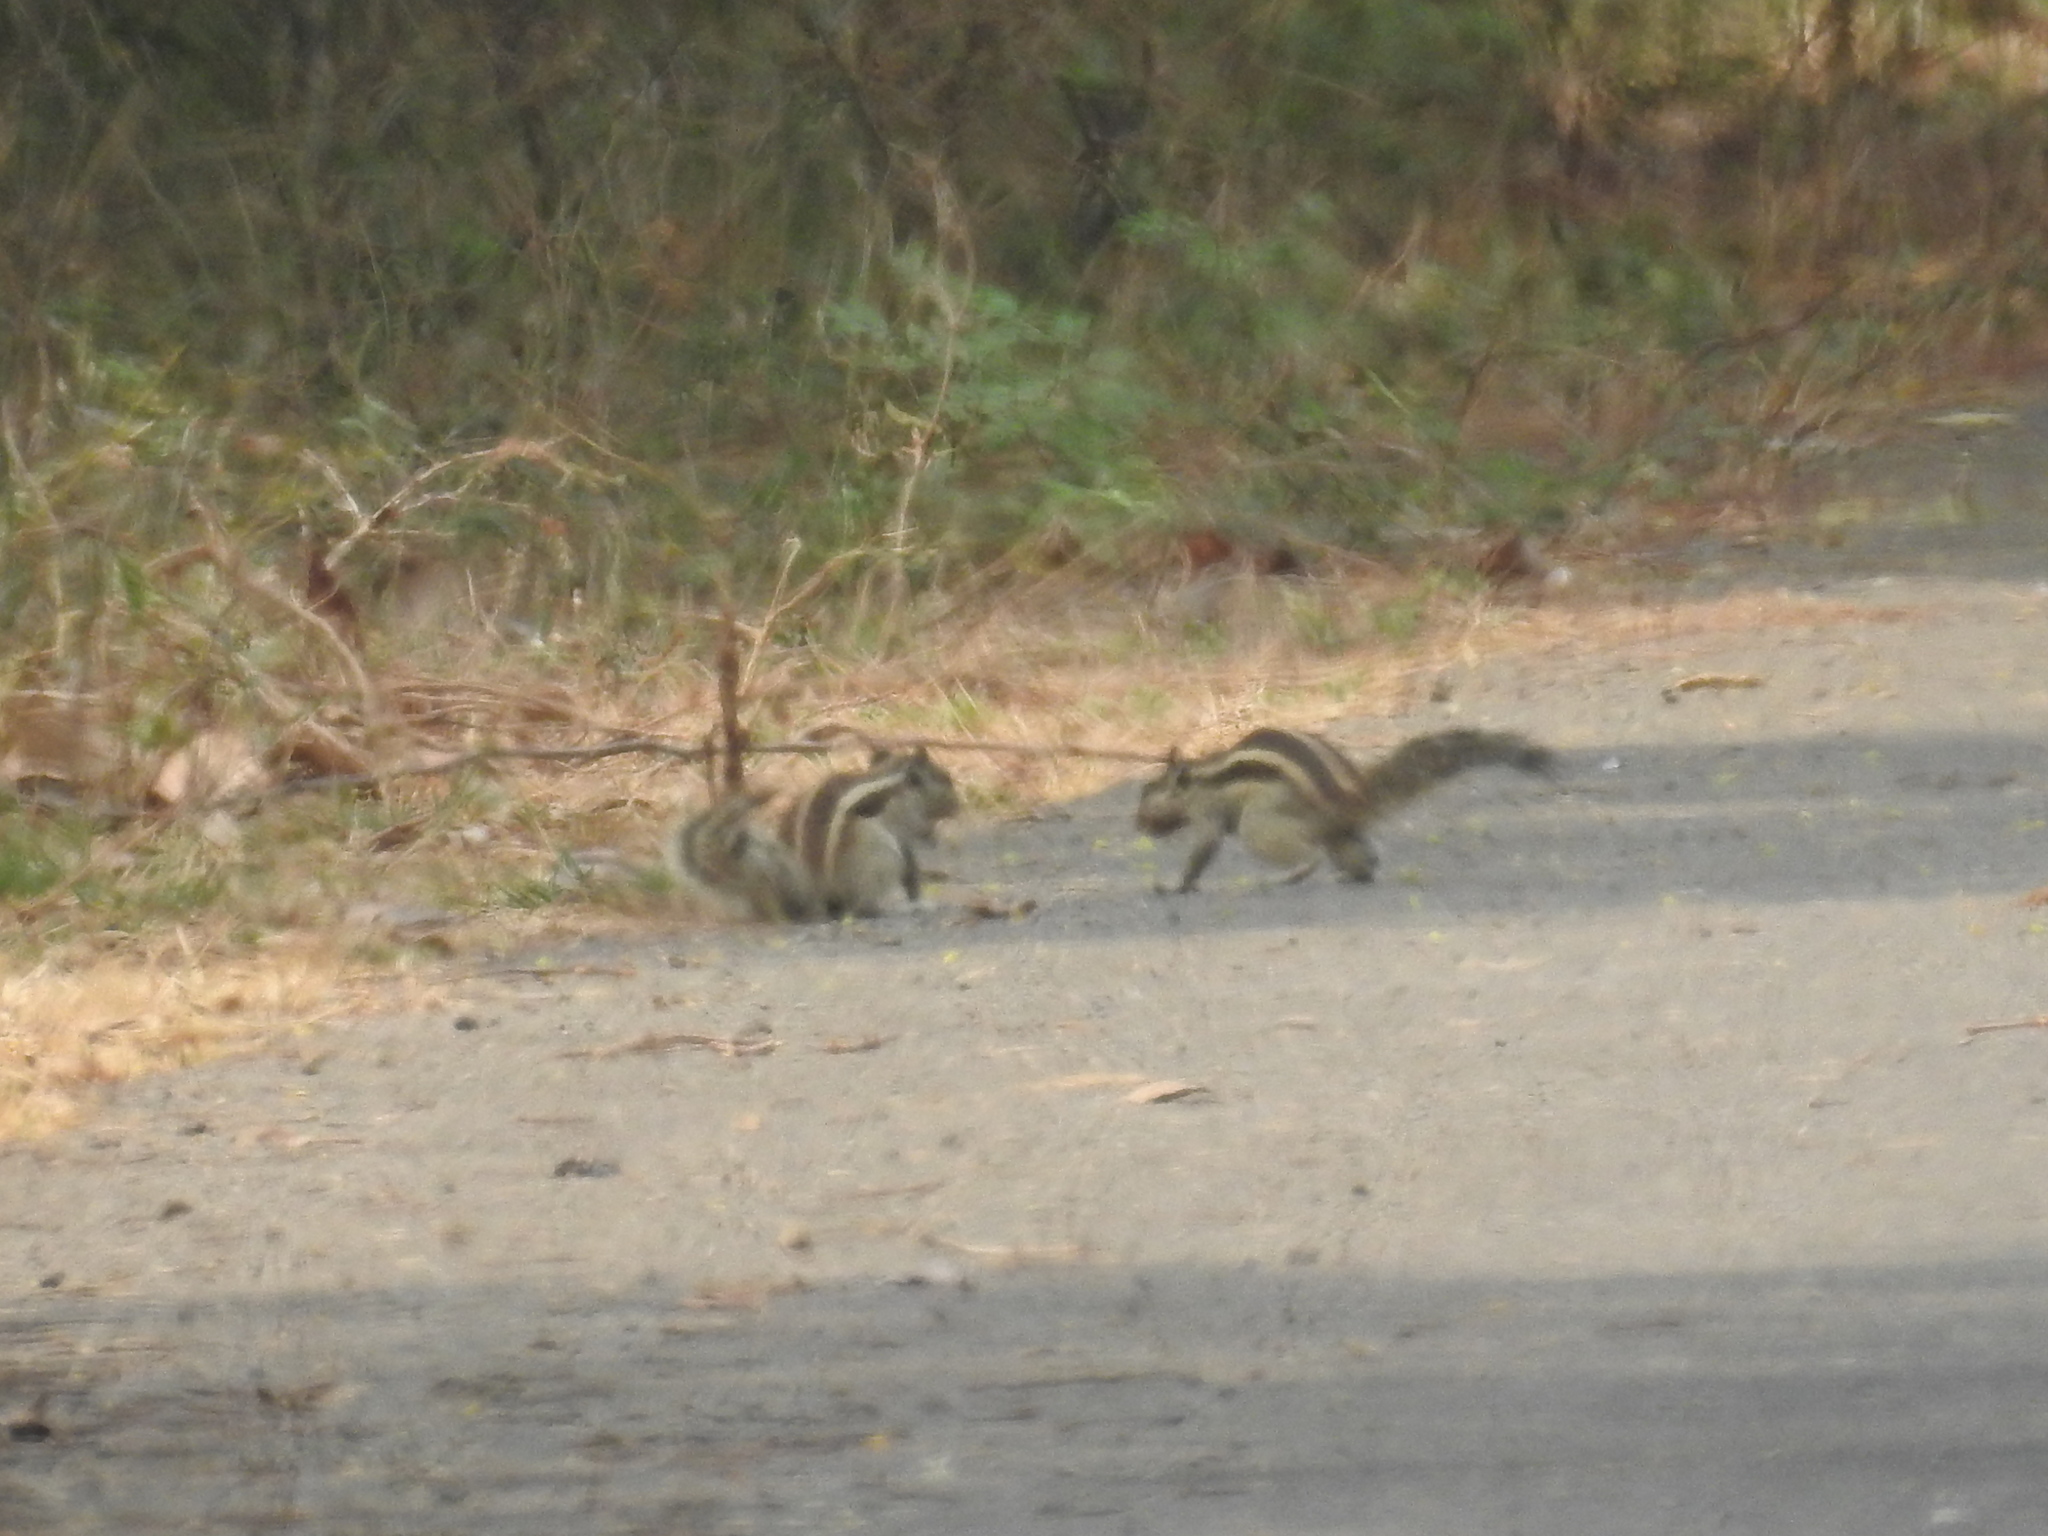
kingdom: Animalia
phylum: Chordata
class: Mammalia
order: Rodentia
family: Sciuridae
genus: Funambulus
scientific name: Funambulus pennantii
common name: Northern palm squirrel
